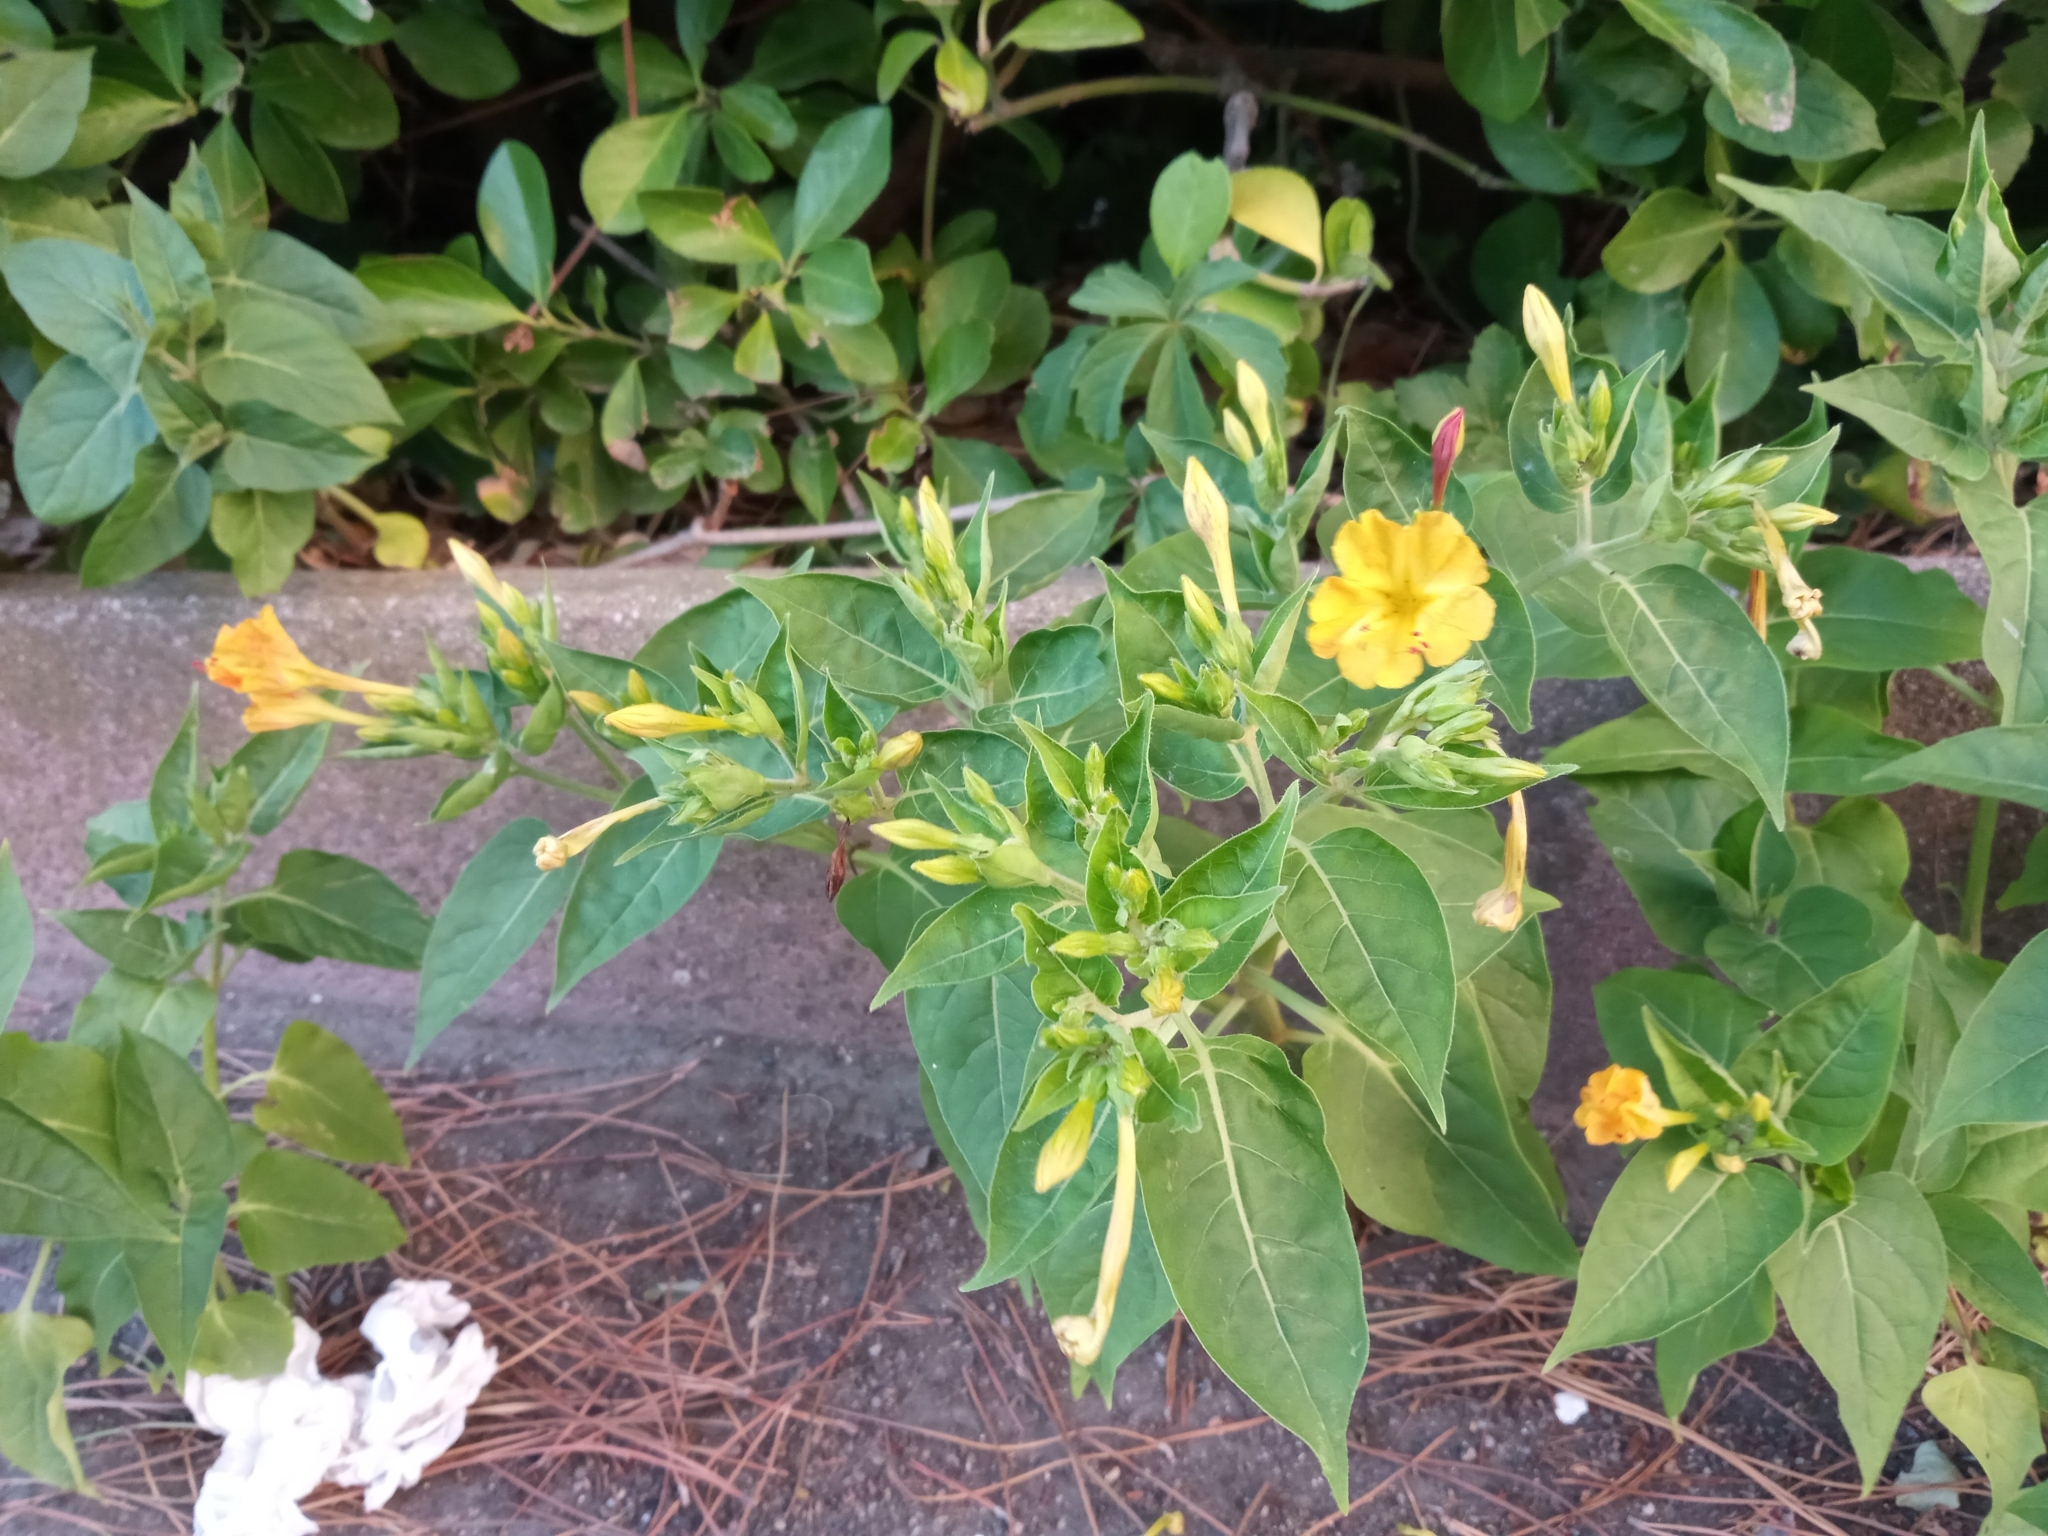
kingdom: Plantae
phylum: Tracheophyta
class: Magnoliopsida
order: Caryophyllales
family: Nyctaginaceae
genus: Mirabilis
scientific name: Mirabilis jalapa
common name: Marvel-of-peru
